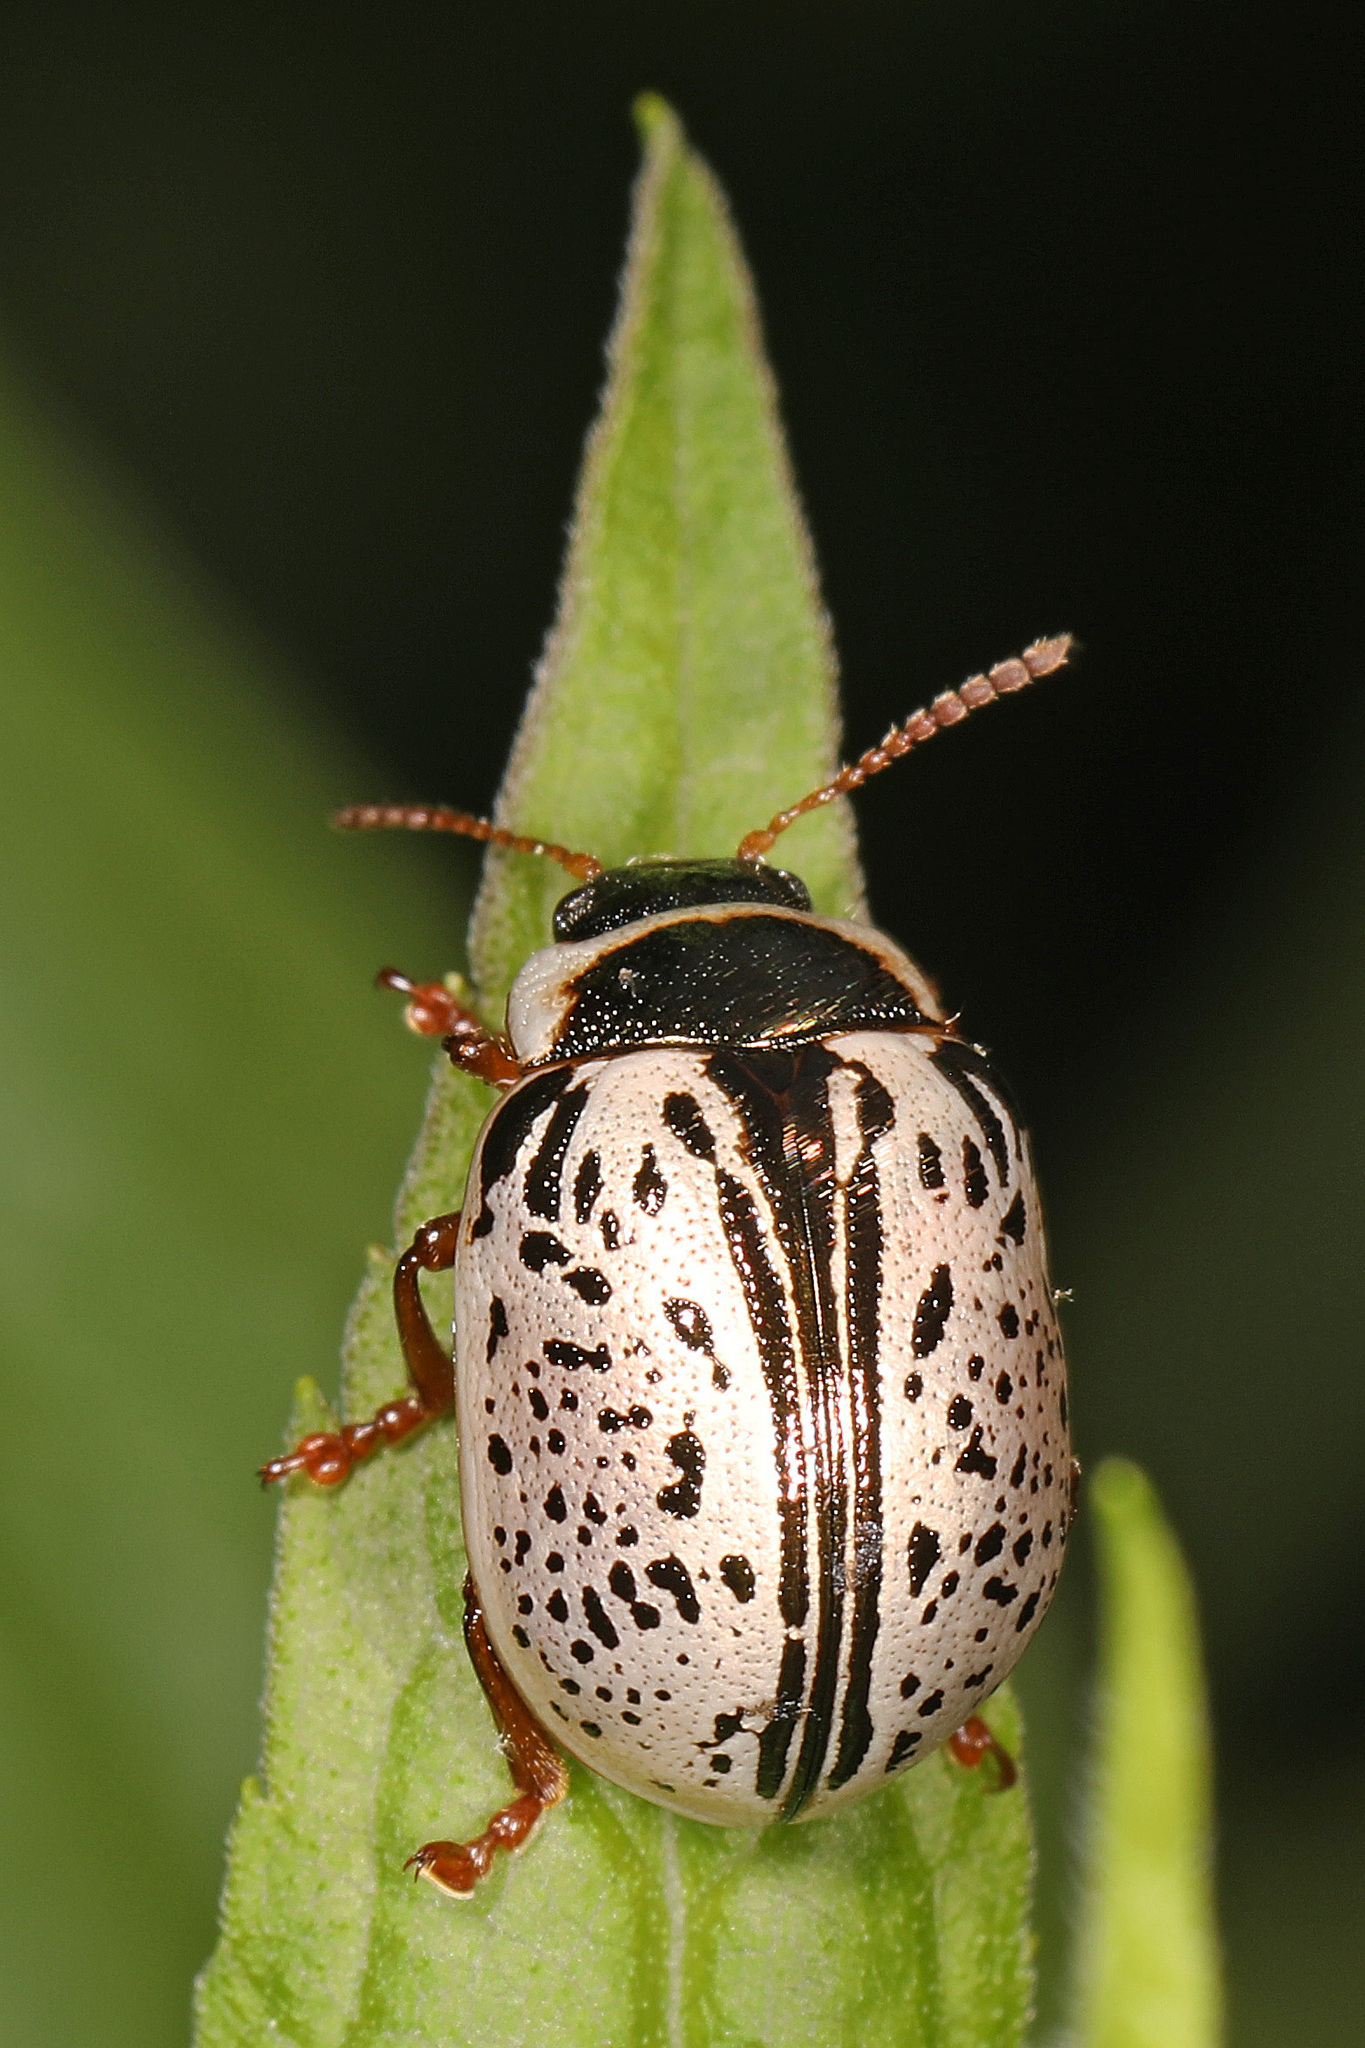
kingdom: Animalia
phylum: Arthropoda
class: Insecta
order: Coleoptera
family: Chrysomelidae
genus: Calligrapha
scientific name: Calligrapha multipunctata
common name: Common willow calligrapher beetle
